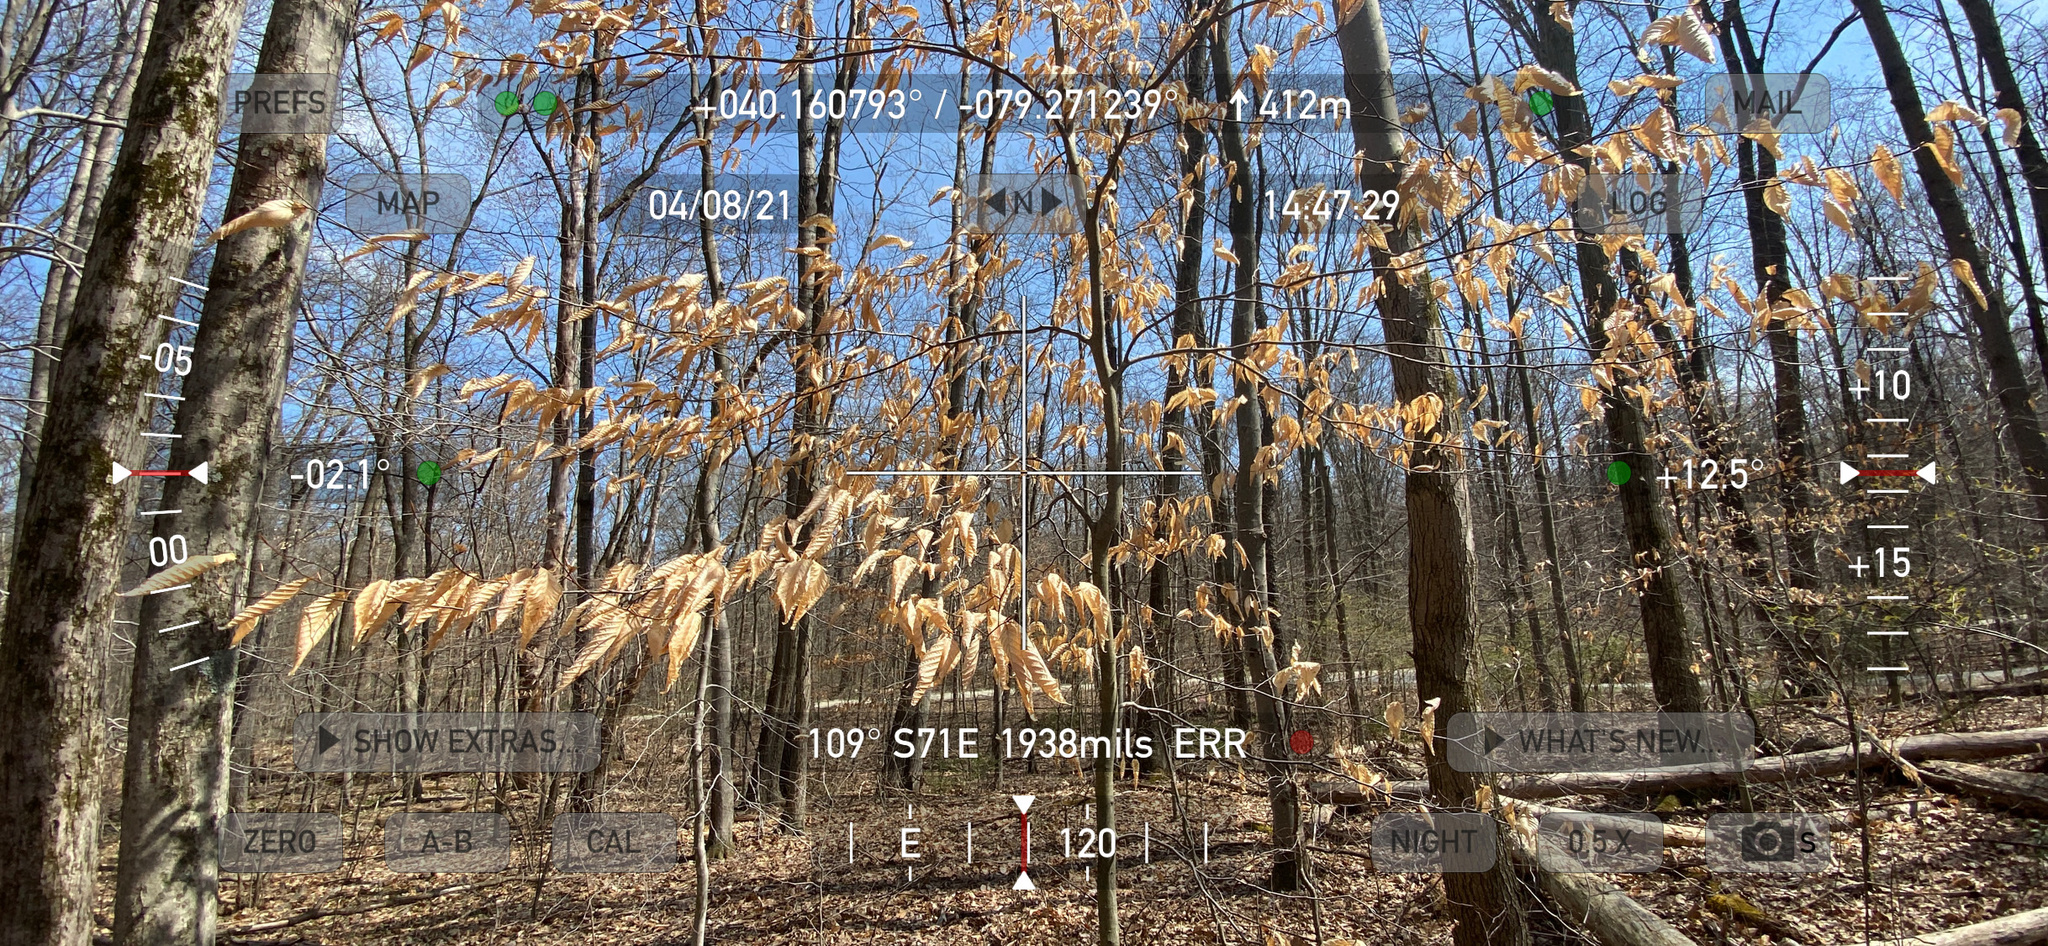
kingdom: Plantae
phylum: Tracheophyta
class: Magnoliopsida
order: Fagales
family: Fagaceae
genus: Fagus
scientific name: Fagus grandifolia
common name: American beech
